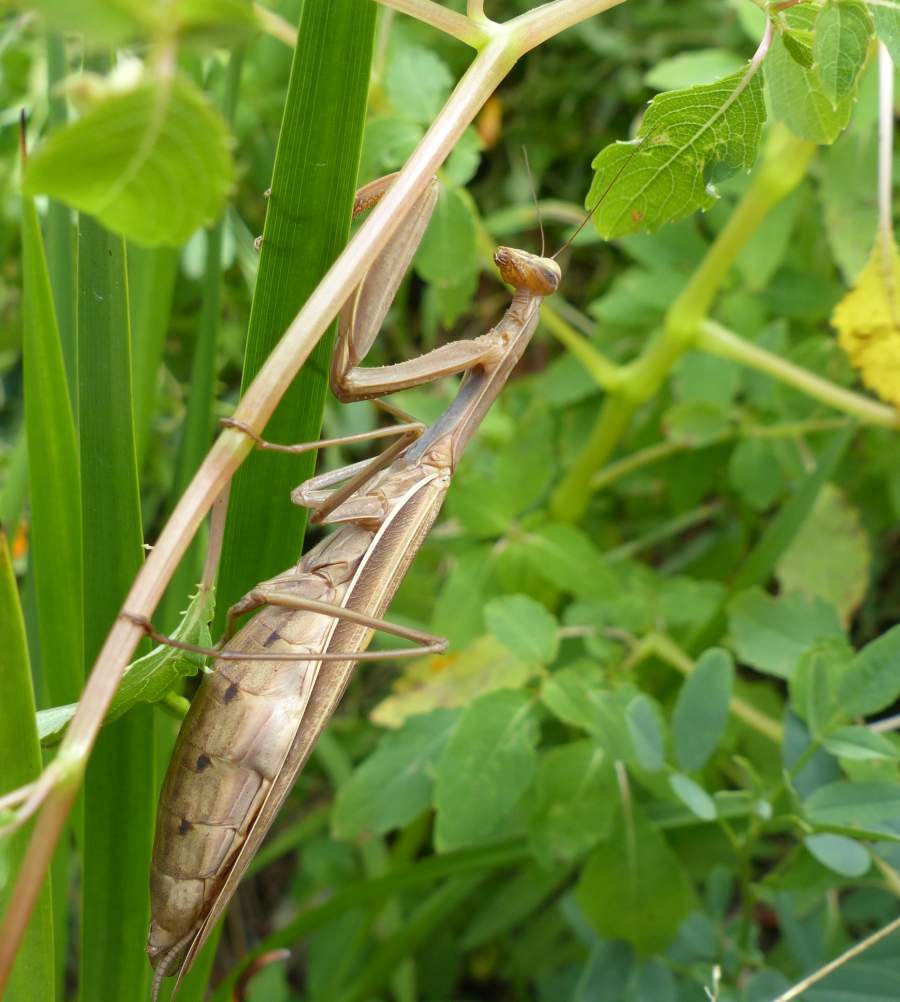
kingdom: Animalia
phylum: Arthropoda
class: Insecta
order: Mantodea
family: Mantidae
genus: Mantis
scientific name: Mantis religiosa
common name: Praying mantis
